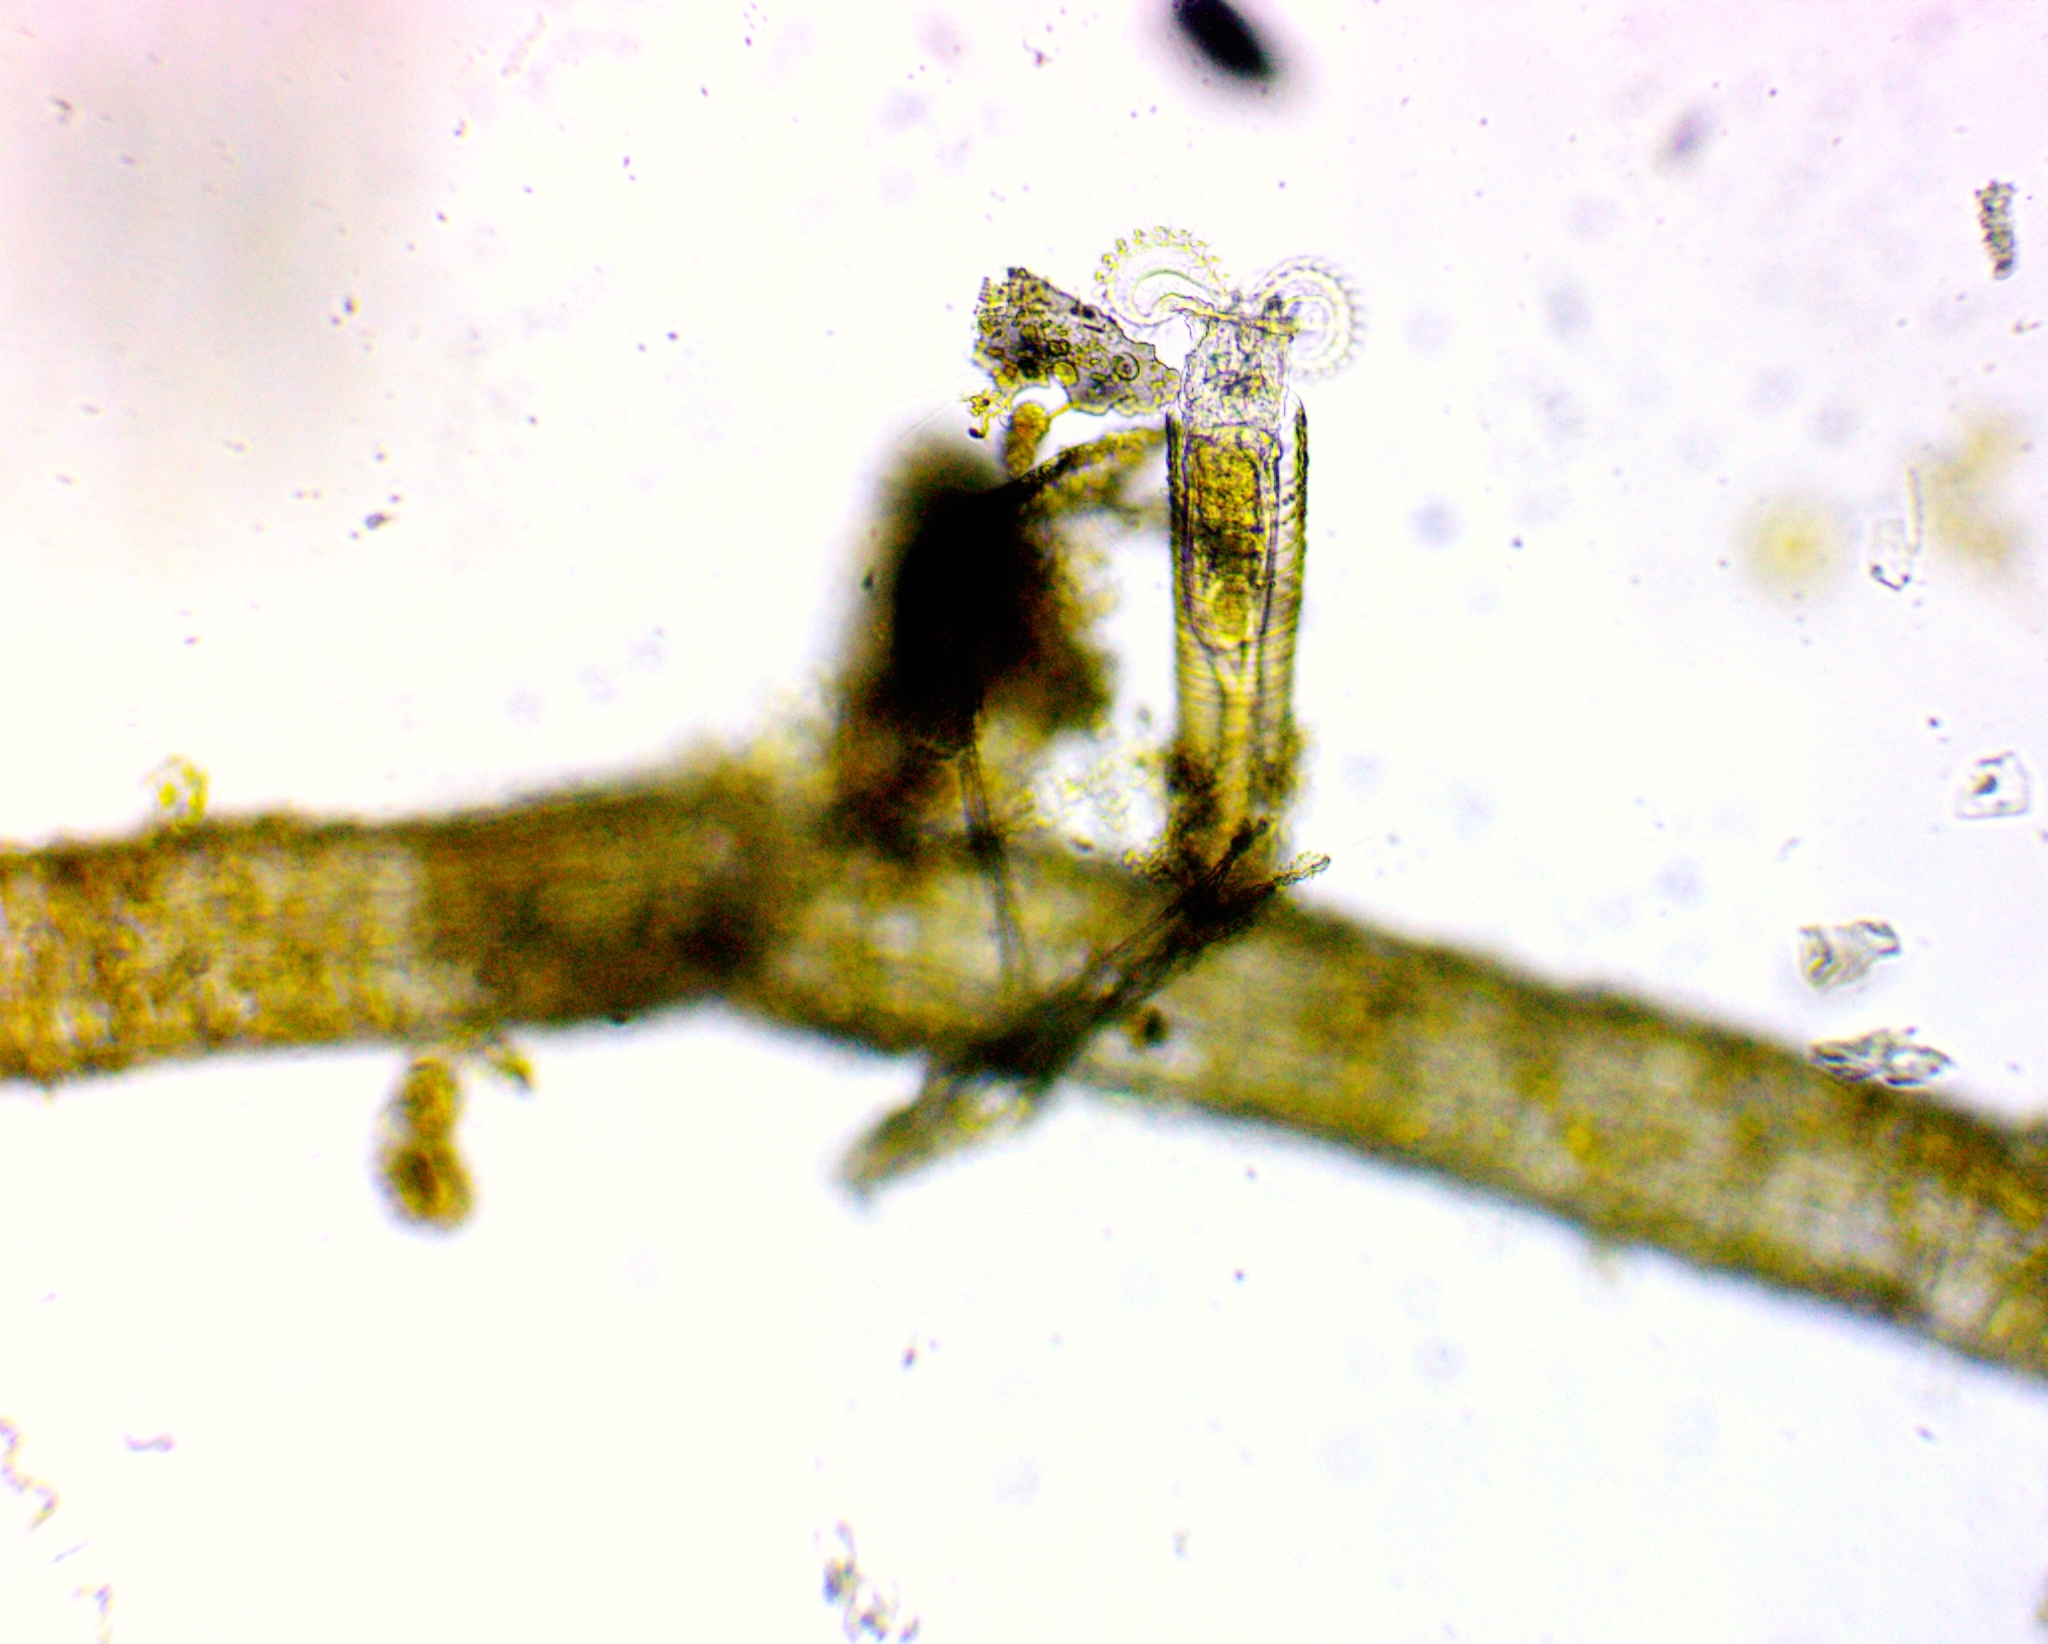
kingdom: Animalia
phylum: Rotifera
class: Eurotatoria
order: Flosculariaceae
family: Flosculariidae
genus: Limnias
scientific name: Limnias melicerta
